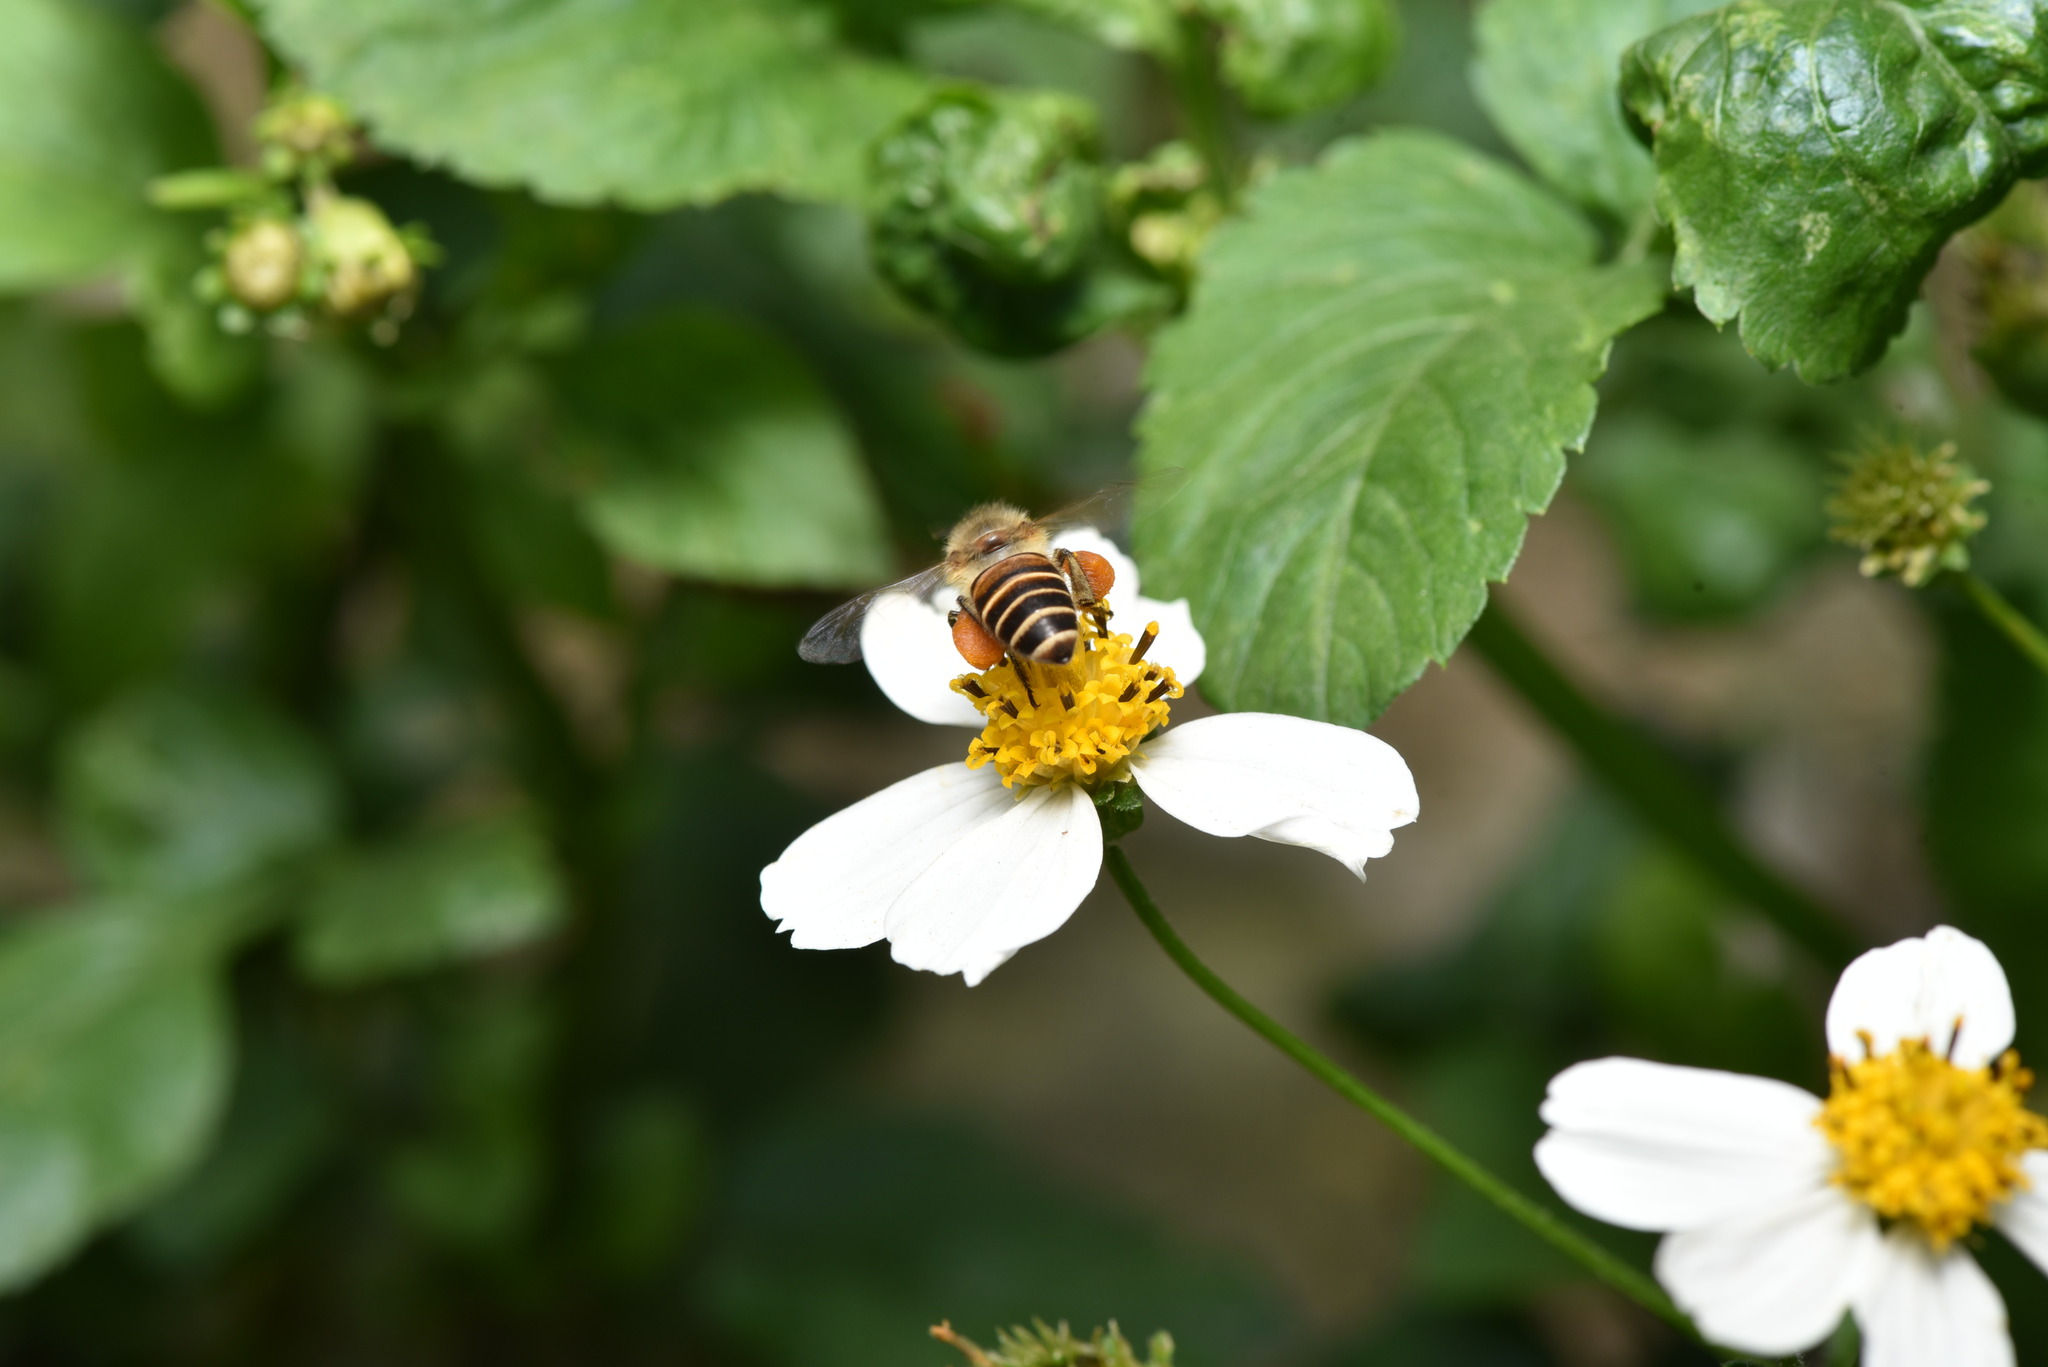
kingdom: Animalia
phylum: Arthropoda
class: Insecta
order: Hymenoptera
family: Apidae
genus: Apis
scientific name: Apis cerana
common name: Honey bee
